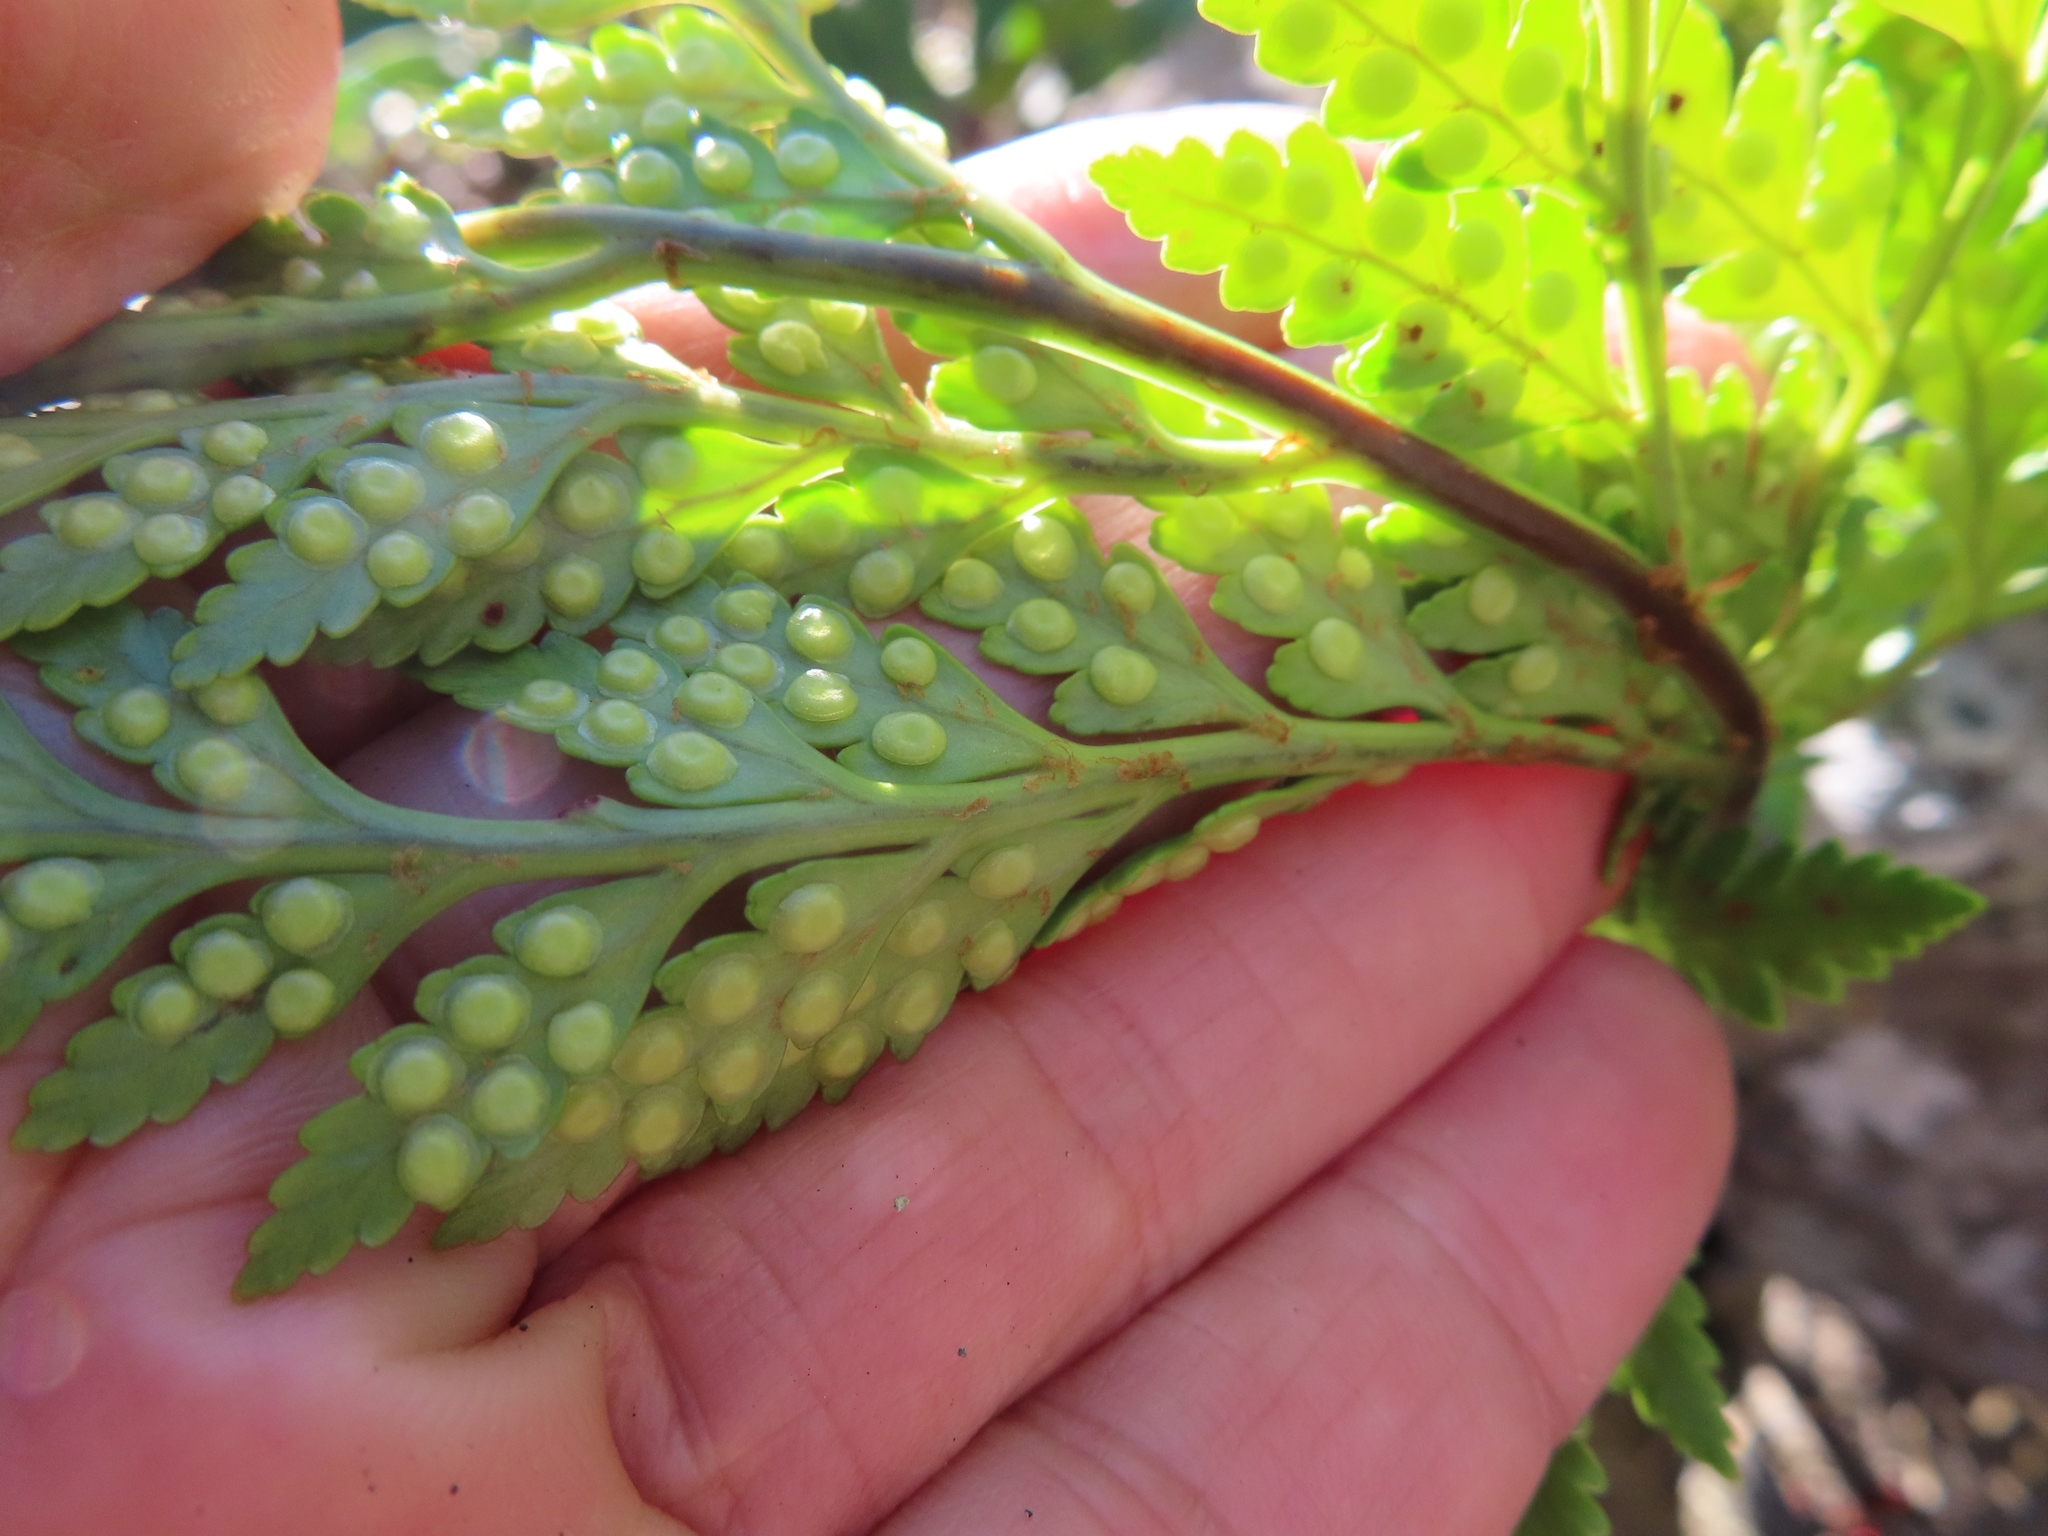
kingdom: Plantae
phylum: Tracheophyta
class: Polypodiopsida
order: Polypodiales
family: Dryopteridaceae
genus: Rumohra
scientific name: Rumohra adiantiformis
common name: Leather fern
